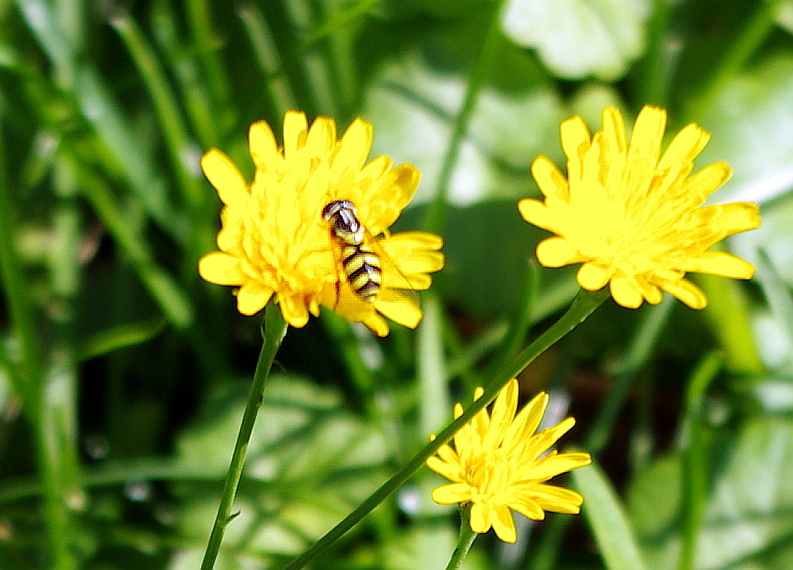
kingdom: Animalia
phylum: Arthropoda
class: Insecta
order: Diptera
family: Syrphidae
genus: Dasysyrphus
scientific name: Dasysyrphus albostriatus
